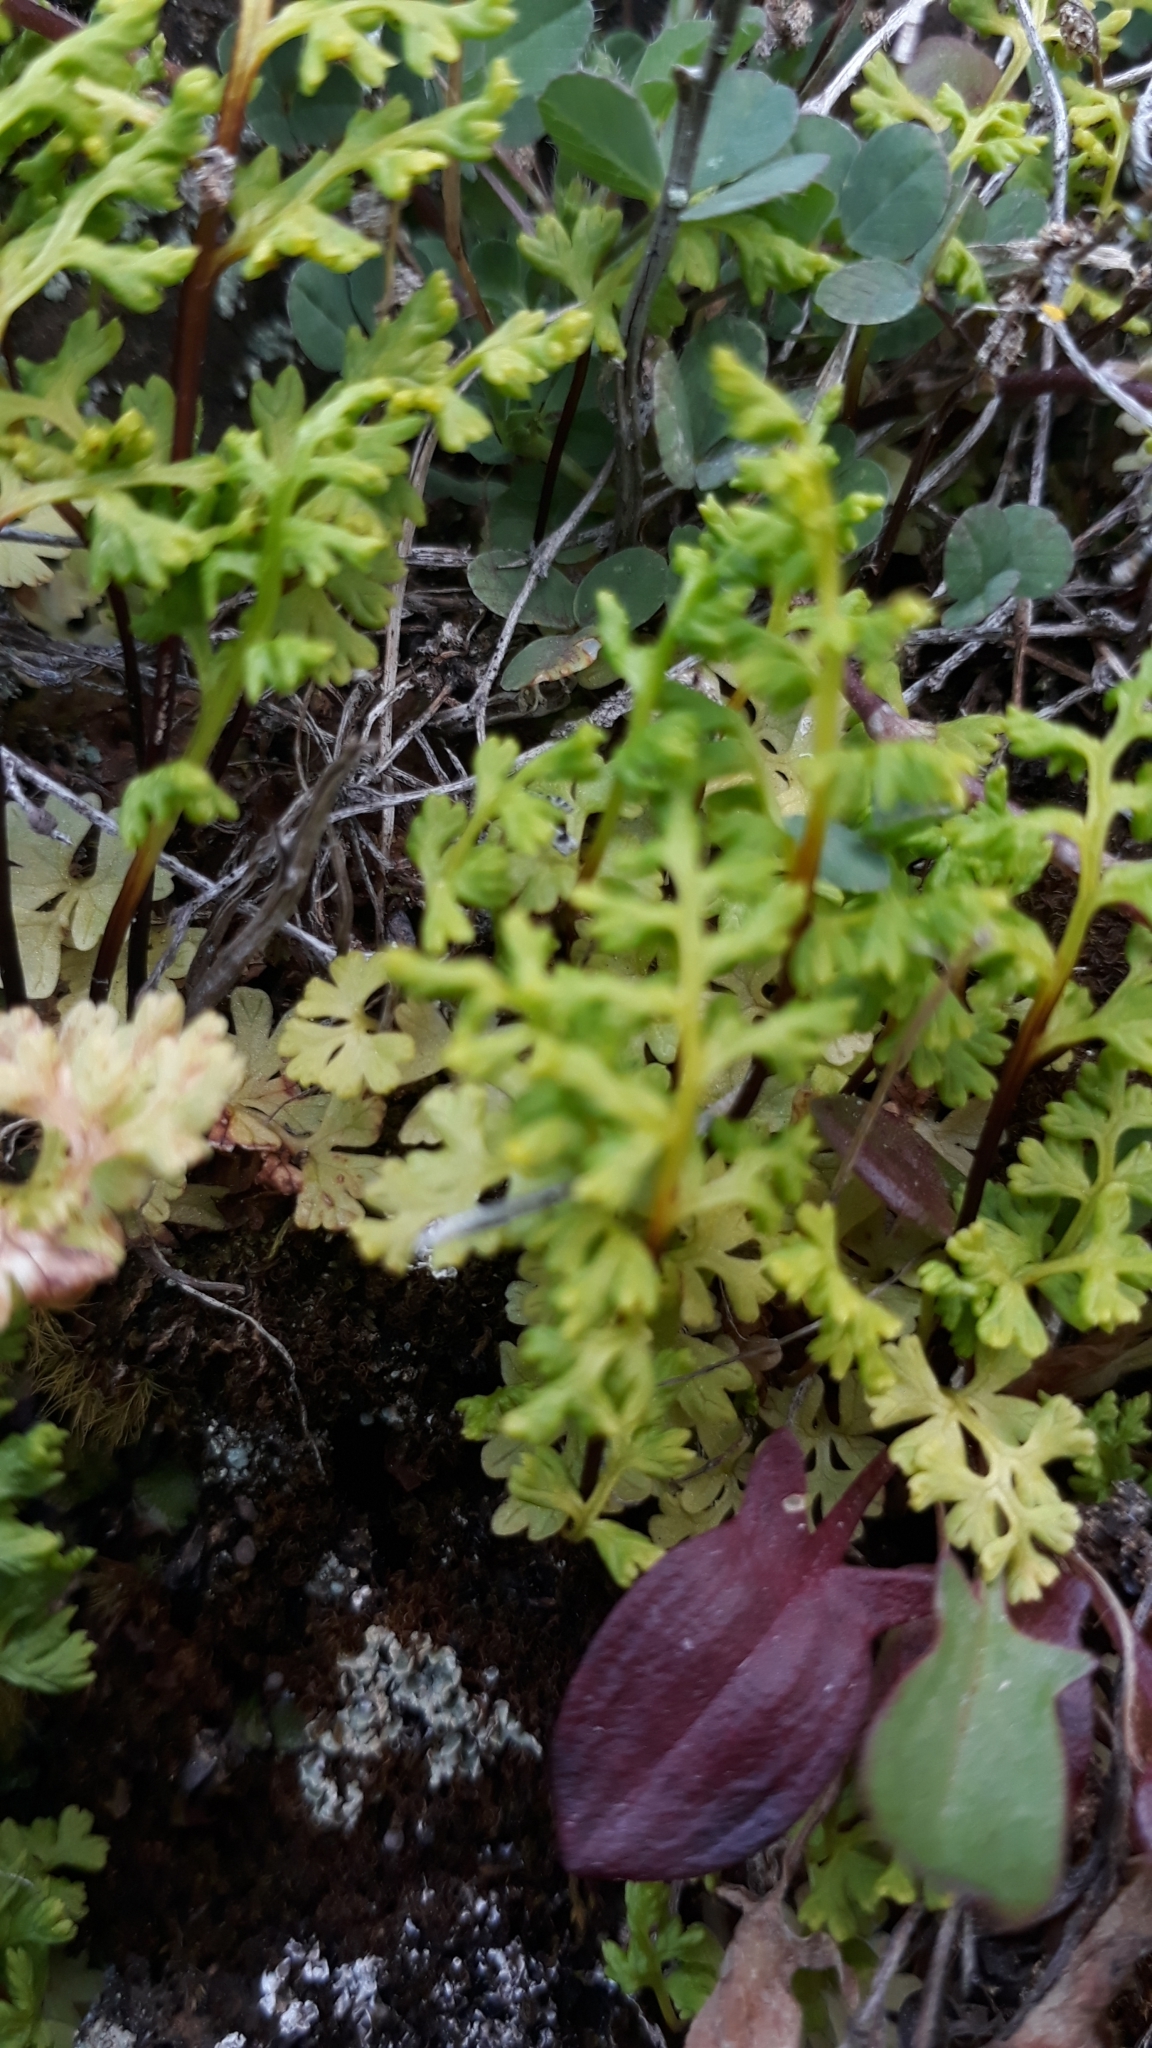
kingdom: Plantae
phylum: Tracheophyta
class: Polypodiopsida
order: Polypodiales
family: Pteridaceae
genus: Anogramma
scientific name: Anogramma leptophylla
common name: Jersey fern
